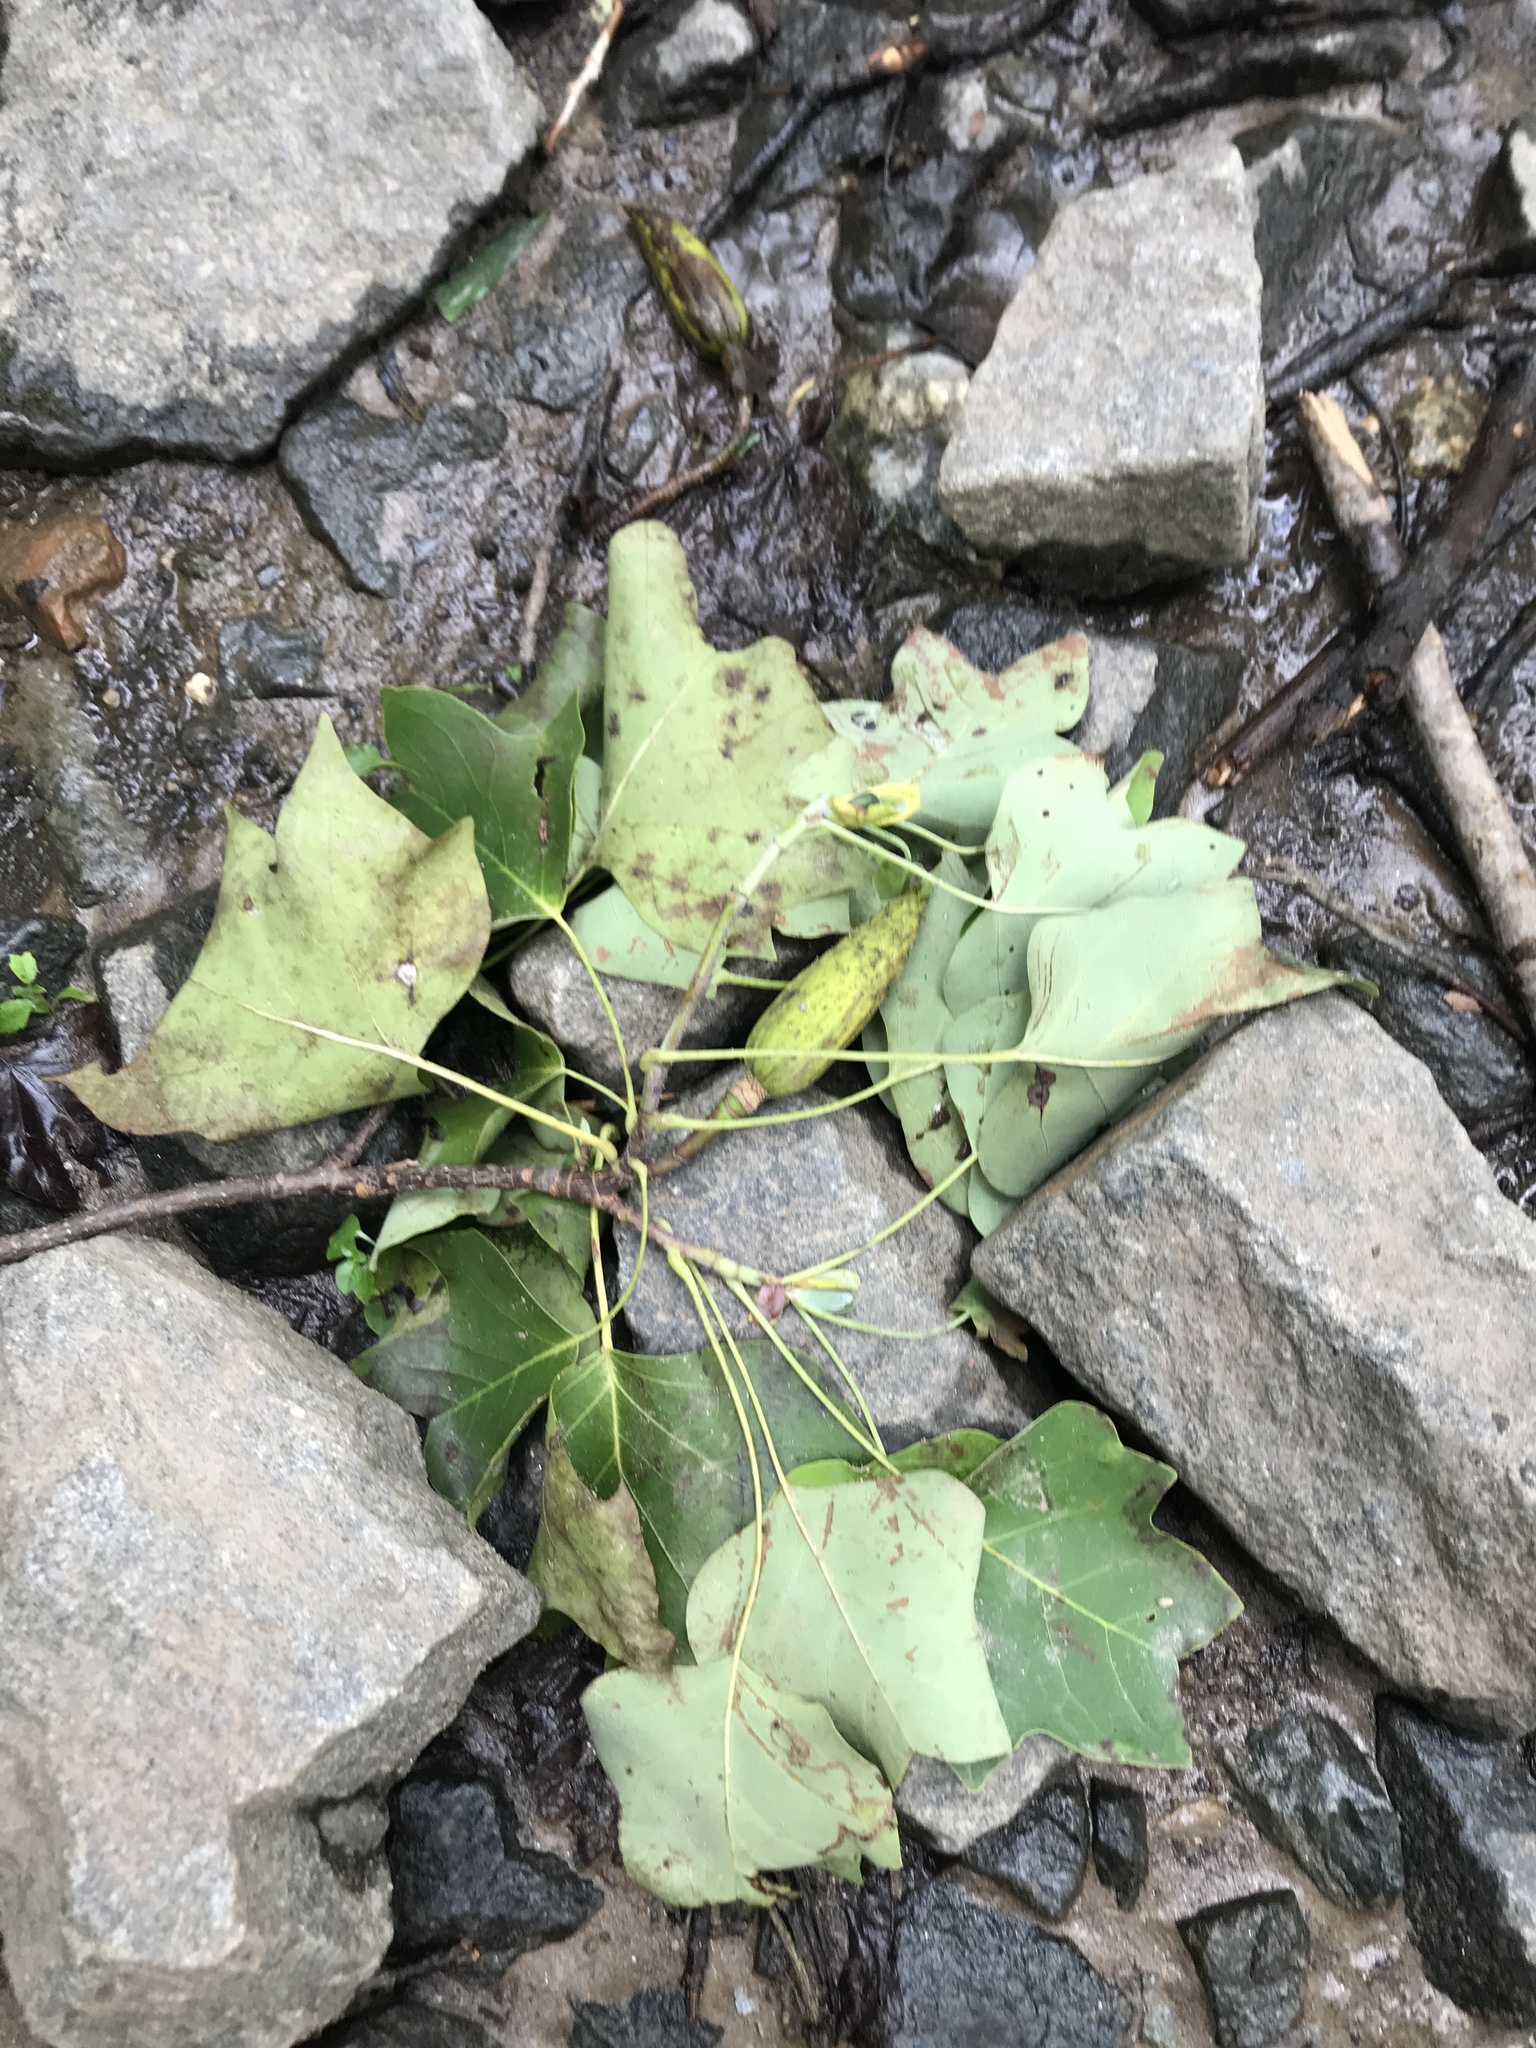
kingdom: Plantae
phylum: Tracheophyta
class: Magnoliopsida
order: Magnoliales
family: Magnoliaceae
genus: Liriodendron
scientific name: Liriodendron tulipifera
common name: Tulip tree
